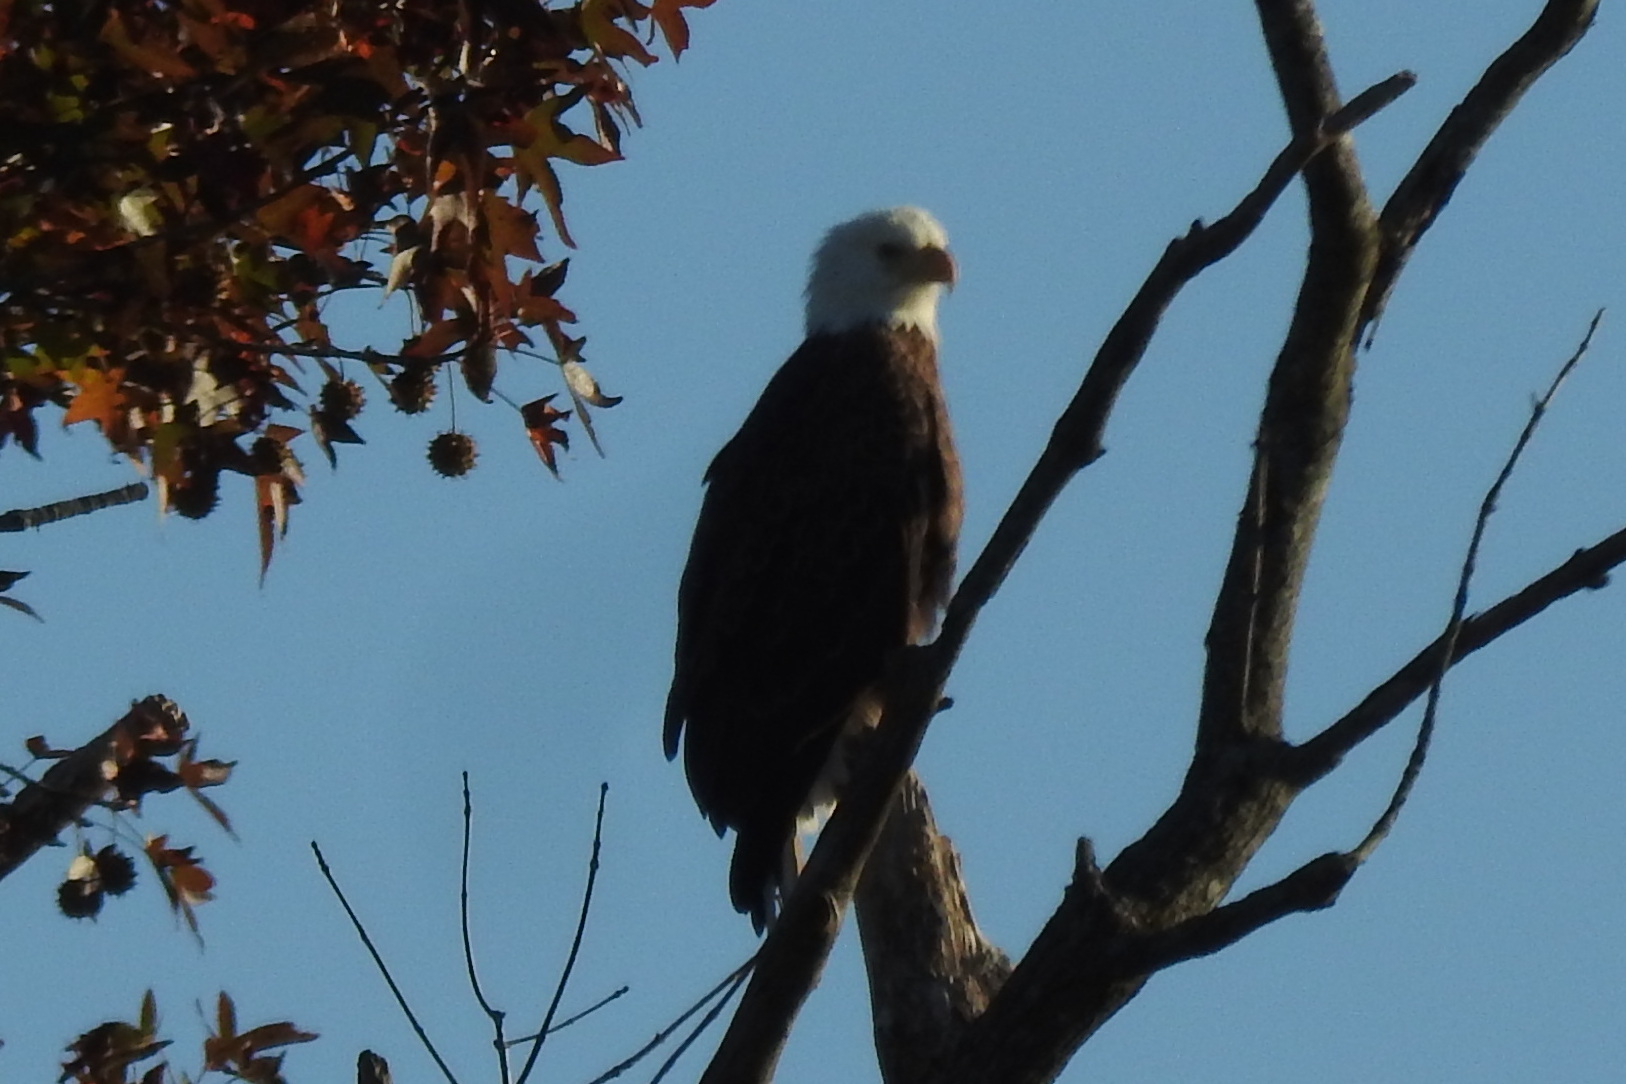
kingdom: Animalia
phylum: Chordata
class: Aves
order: Accipitriformes
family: Accipitridae
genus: Haliaeetus
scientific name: Haliaeetus leucocephalus
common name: Bald eagle
